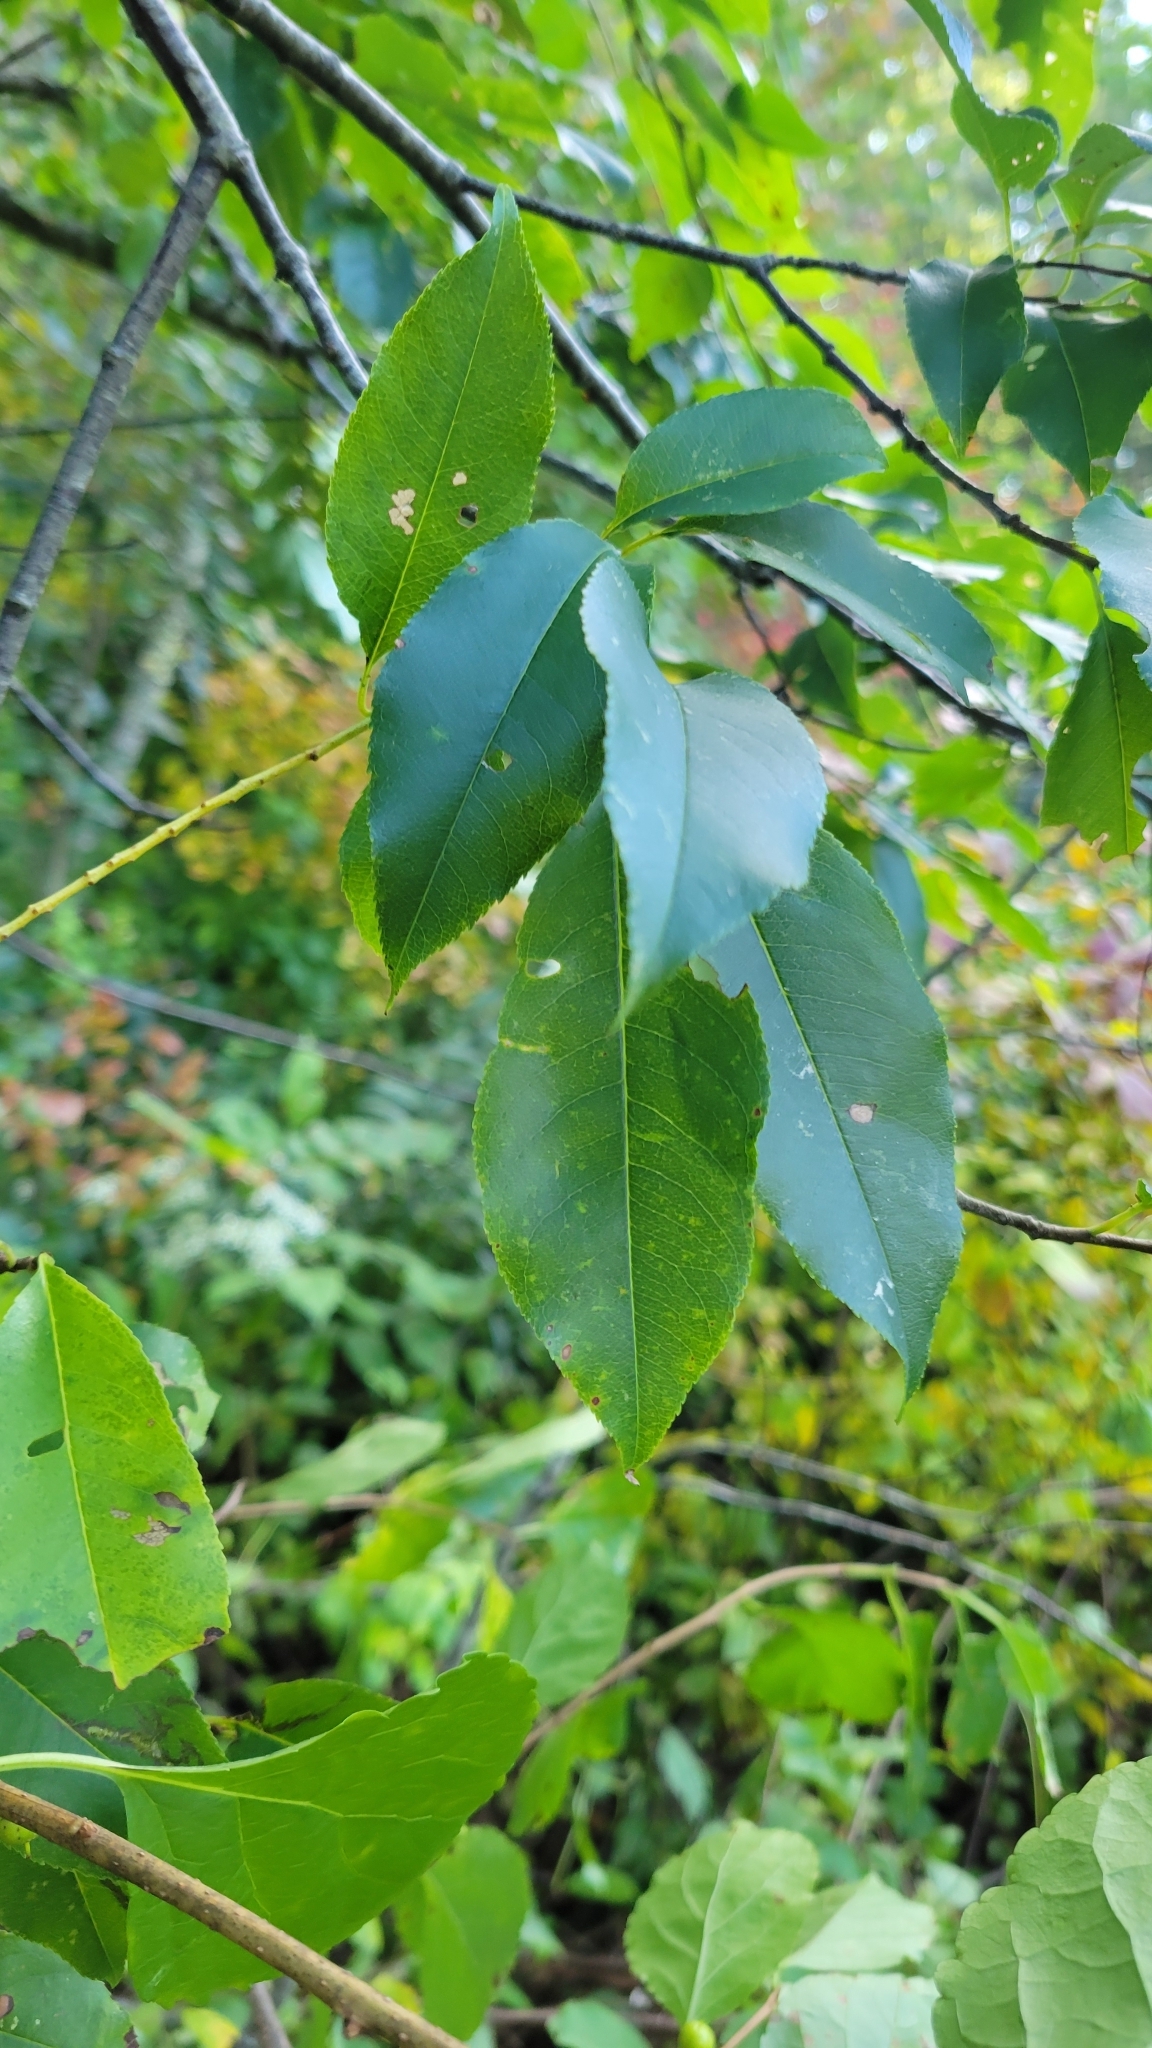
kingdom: Plantae
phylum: Tracheophyta
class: Magnoliopsida
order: Rosales
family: Rosaceae
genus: Prunus
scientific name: Prunus serotina
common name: Black cherry
